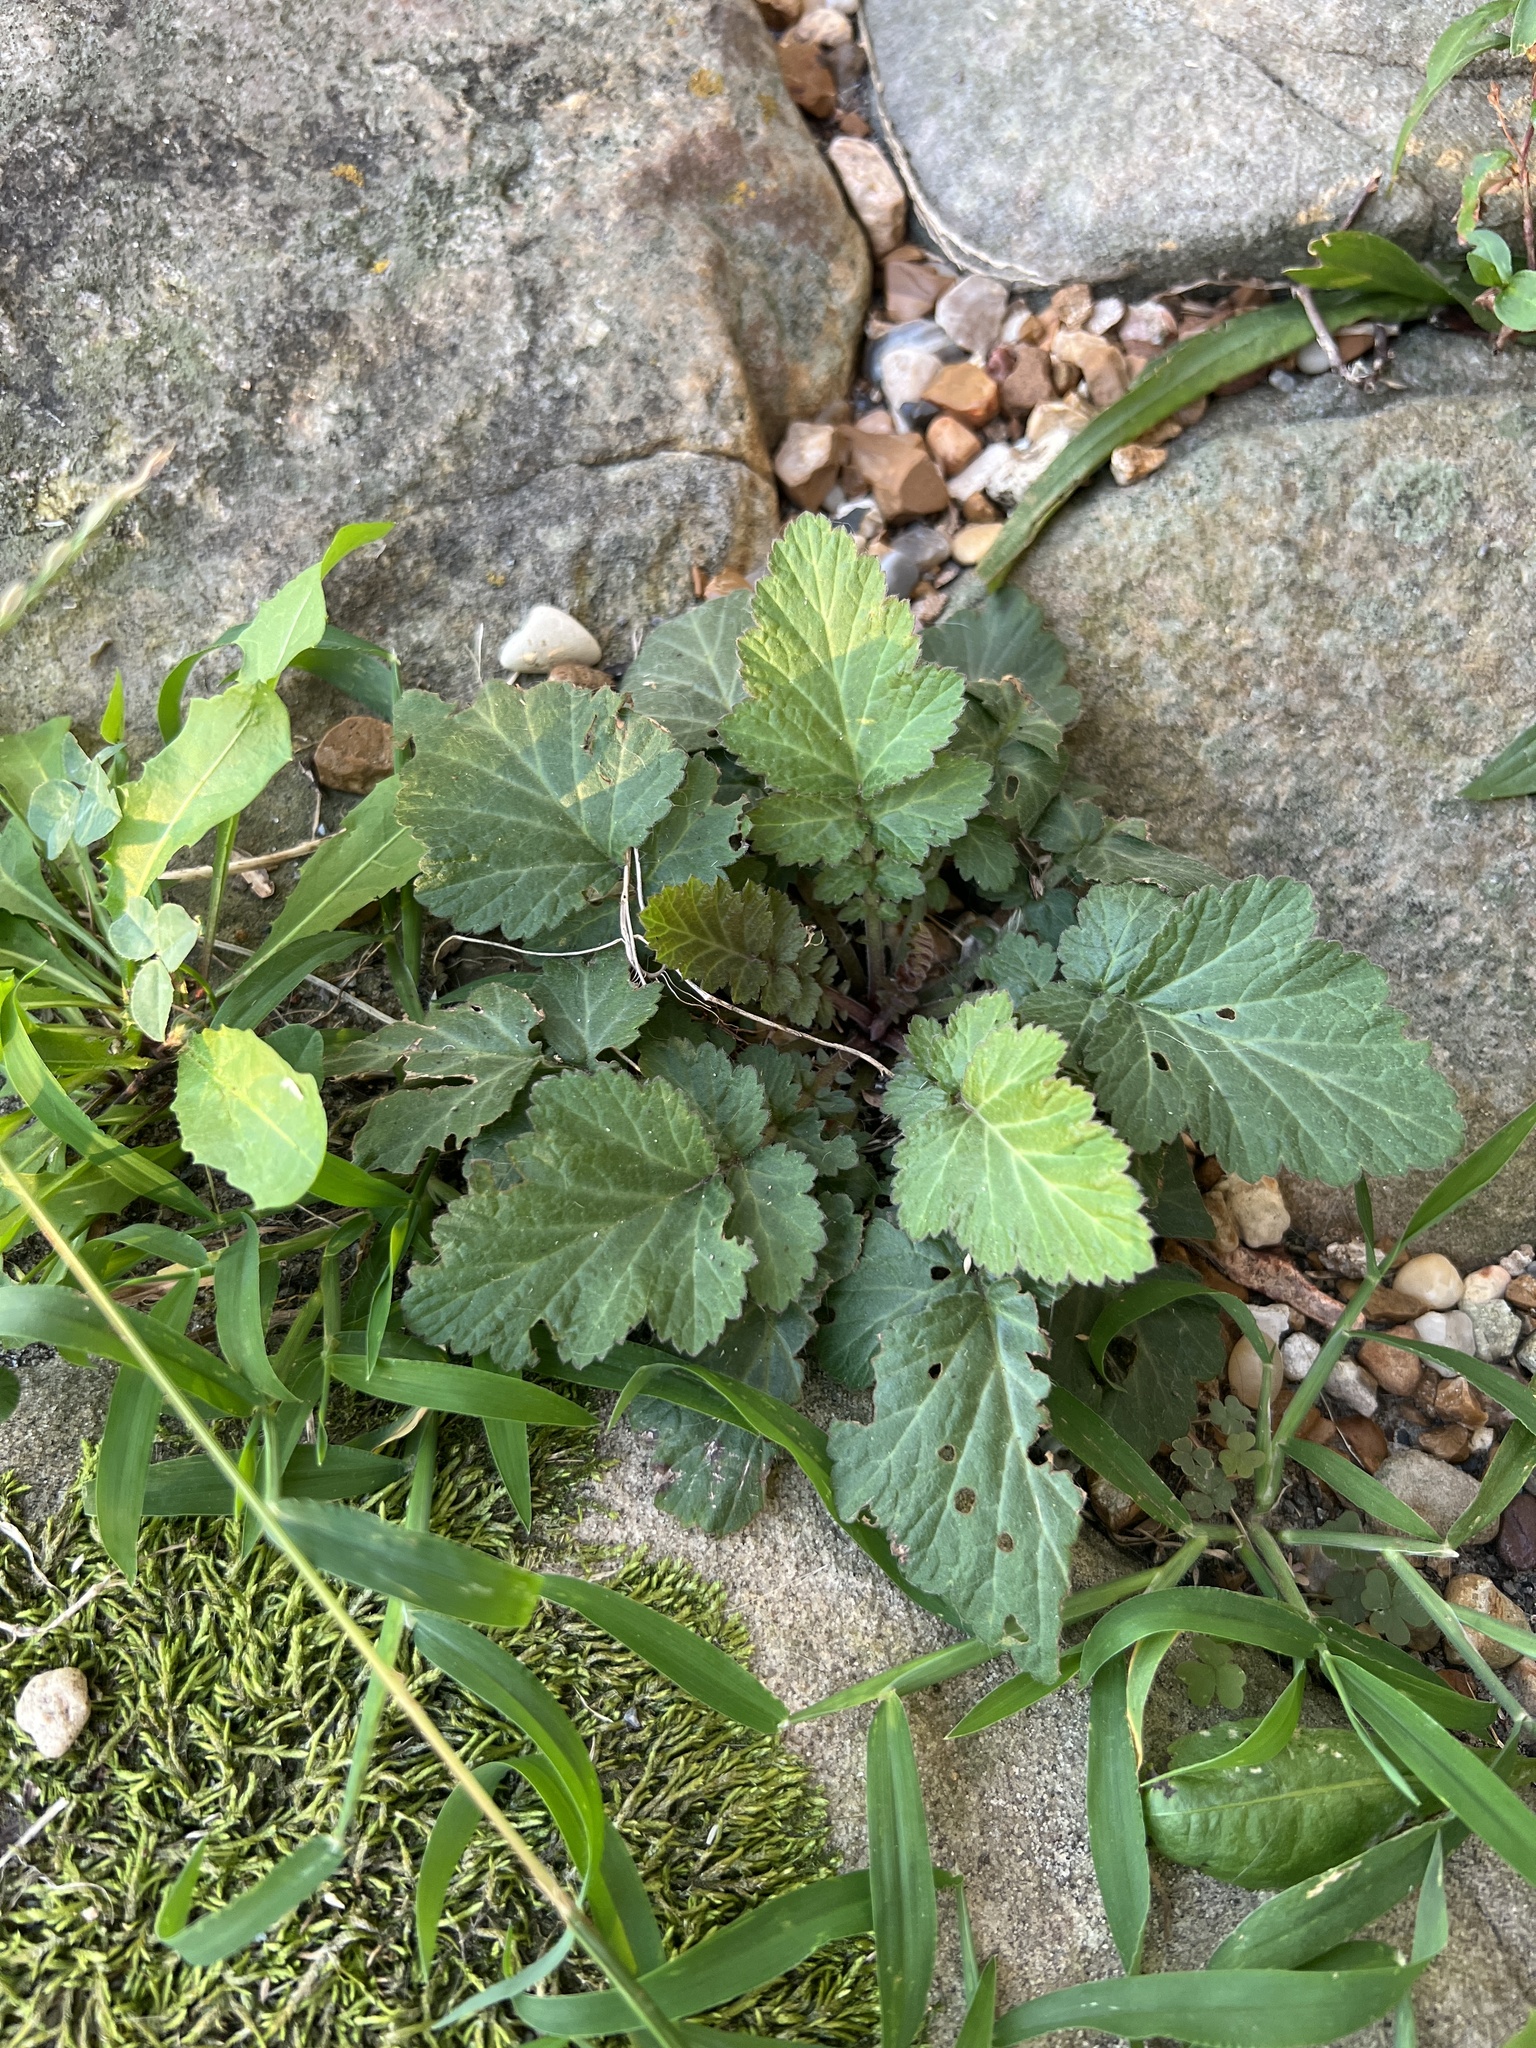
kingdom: Plantae
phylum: Tracheophyta
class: Magnoliopsida
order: Rosales
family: Rosaceae
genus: Geum
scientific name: Geum canadense
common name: White avens
